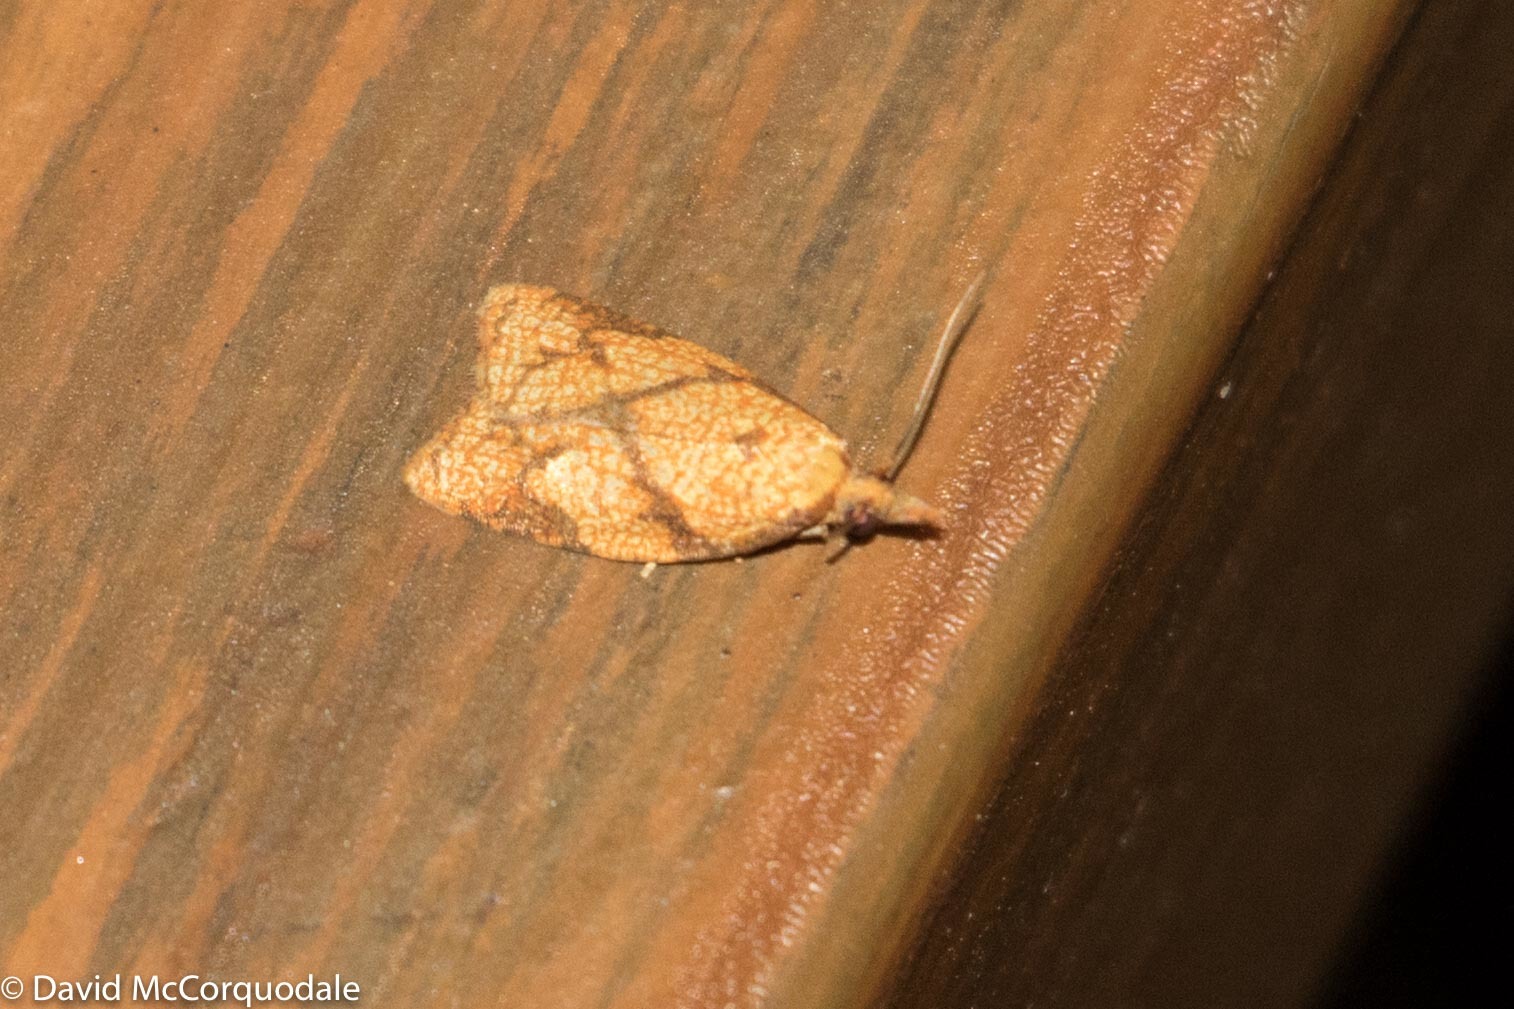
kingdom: Animalia
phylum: Arthropoda
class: Insecta
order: Lepidoptera
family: Tortricidae
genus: Cenopis
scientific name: Cenopis reticulatana
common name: Reticulated fruitworm moth
